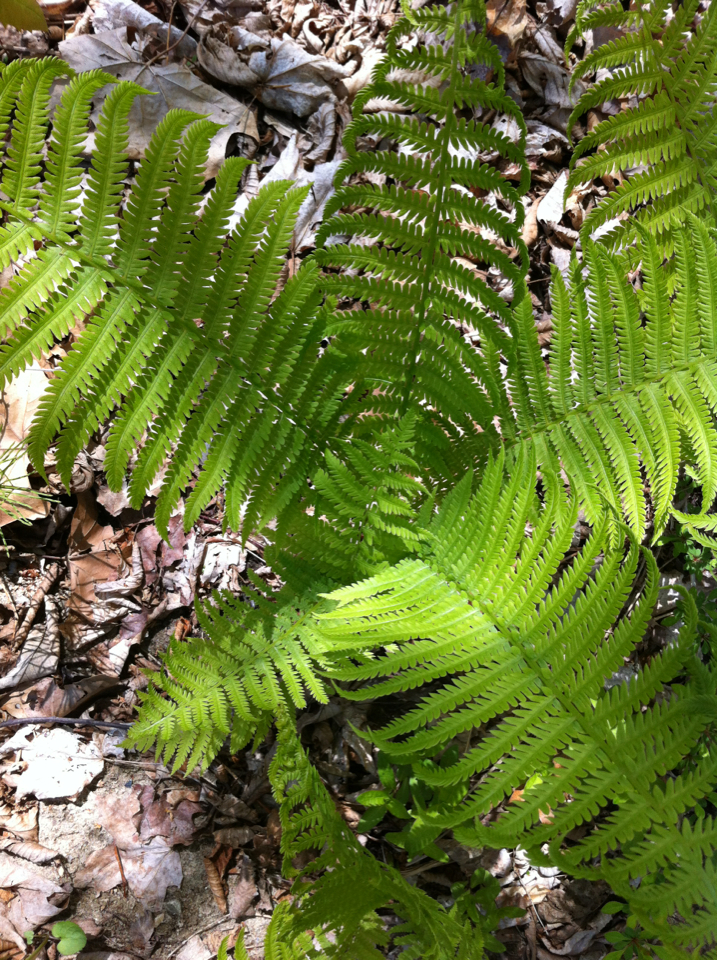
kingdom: Plantae
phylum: Tracheophyta
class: Polypodiopsida
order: Polypodiales
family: Onocleaceae
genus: Matteuccia
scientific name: Matteuccia struthiopteris
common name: Ostrich fern
